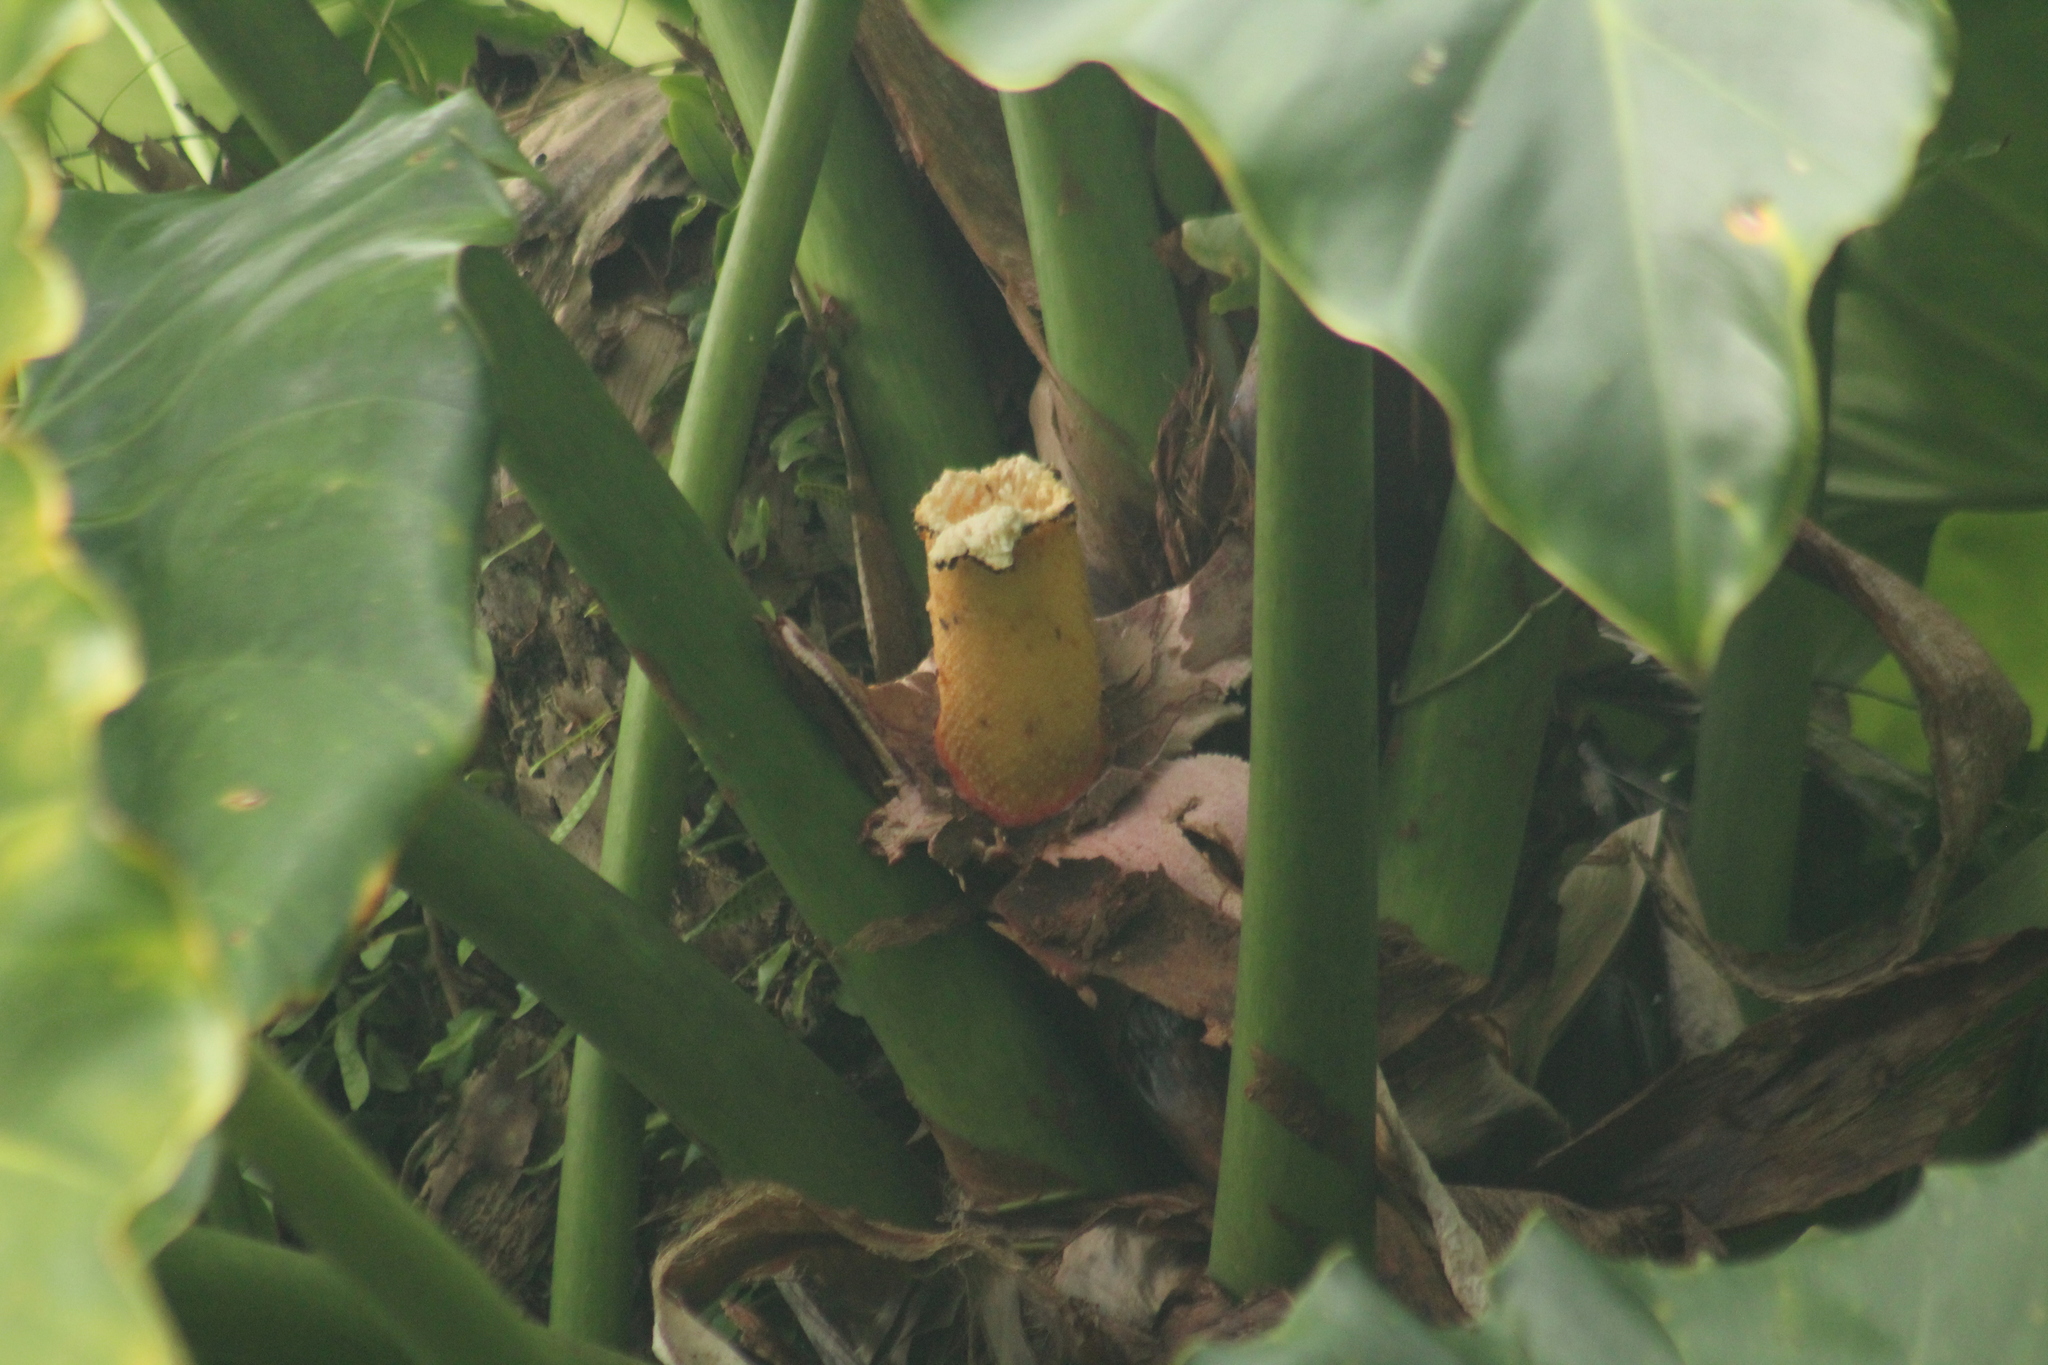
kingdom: Plantae
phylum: Tracheophyta
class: Liliopsida
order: Alismatales
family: Araceae
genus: Philodendron
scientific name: Philodendron giganteum
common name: Giant philodendron
